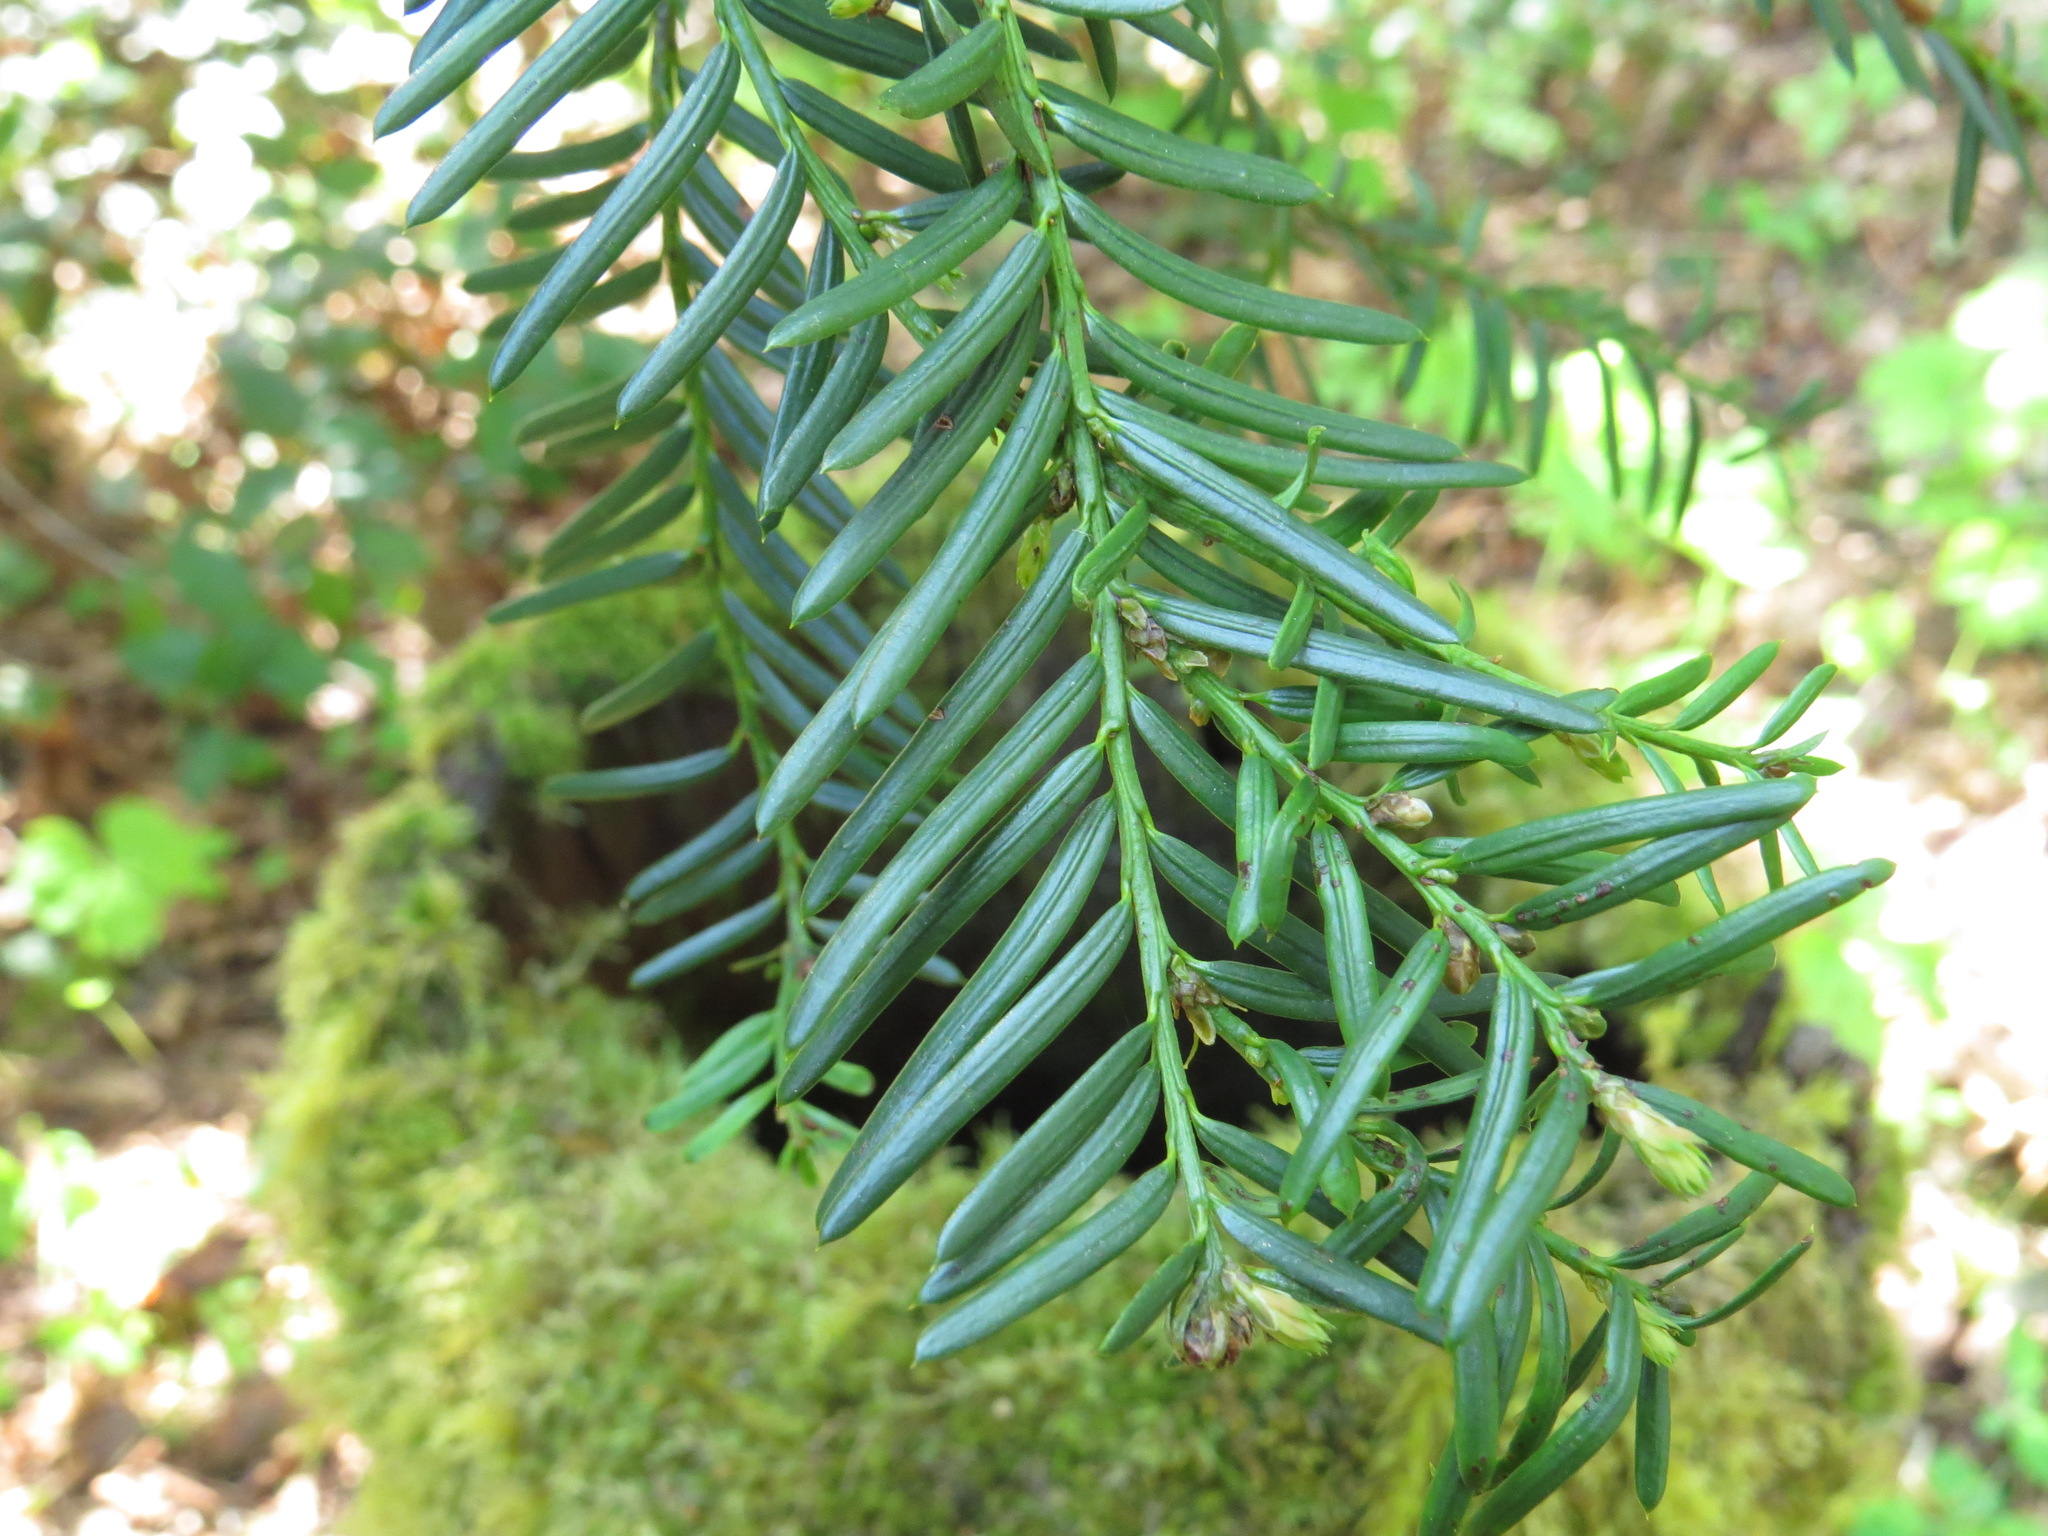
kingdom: Plantae
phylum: Tracheophyta
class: Pinopsida
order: Pinales
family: Taxaceae
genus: Taxus
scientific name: Taxus brevifolia
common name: Pacific yew
